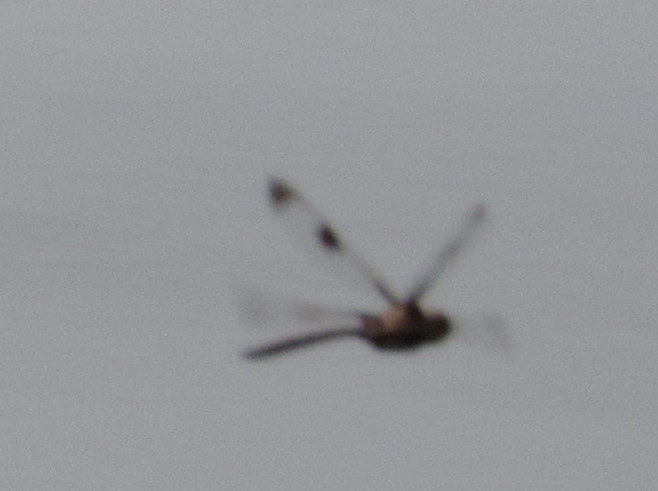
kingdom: Animalia
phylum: Arthropoda
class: Insecta
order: Odonata
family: Corduliidae
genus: Epitheca
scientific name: Epitheca princeps
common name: Prince baskettail
